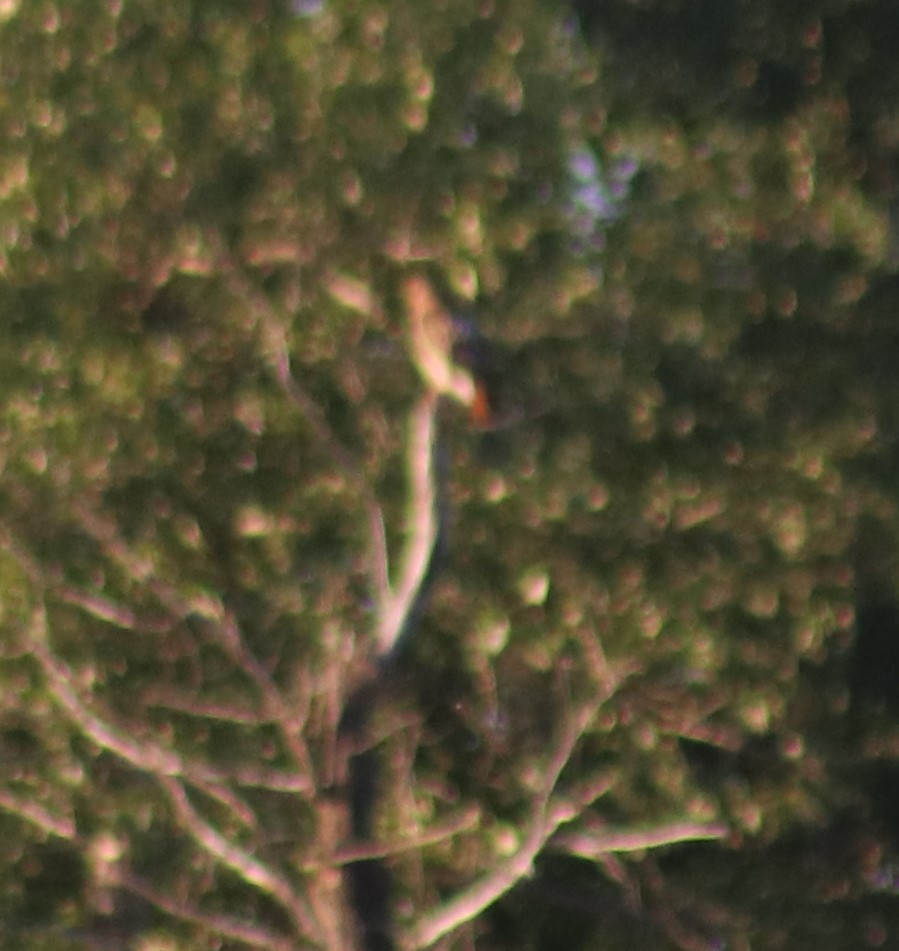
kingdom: Animalia
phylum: Chordata
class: Aves
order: Accipitriformes
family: Accipitridae
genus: Buteo
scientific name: Buteo jamaicensis
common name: Red-tailed hawk
